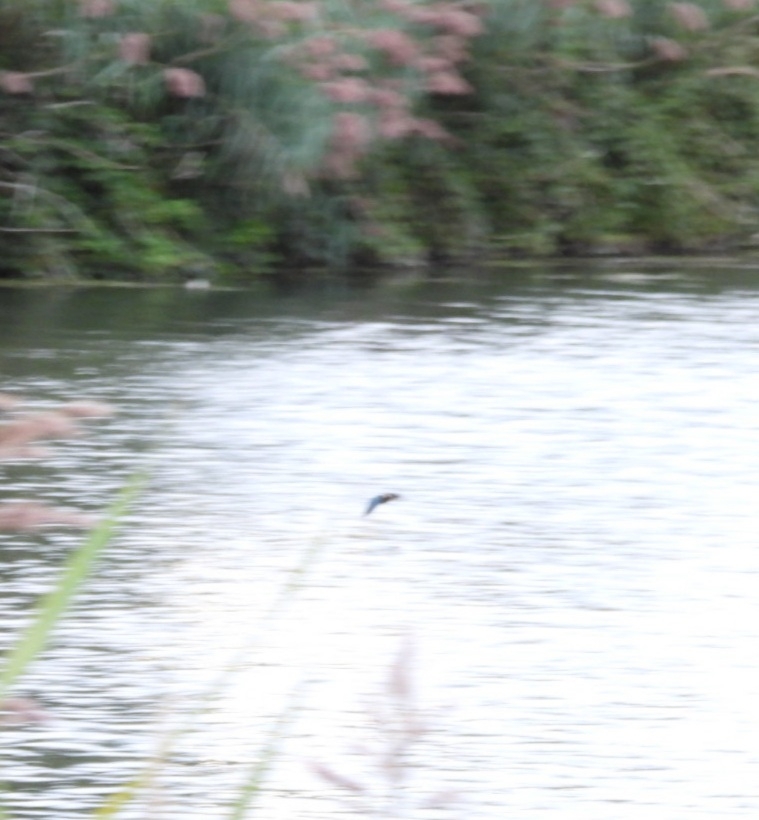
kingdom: Animalia
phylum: Chordata
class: Aves
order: Coraciiformes
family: Alcedinidae
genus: Alcedo
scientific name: Alcedo atthis
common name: Common kingfisher
